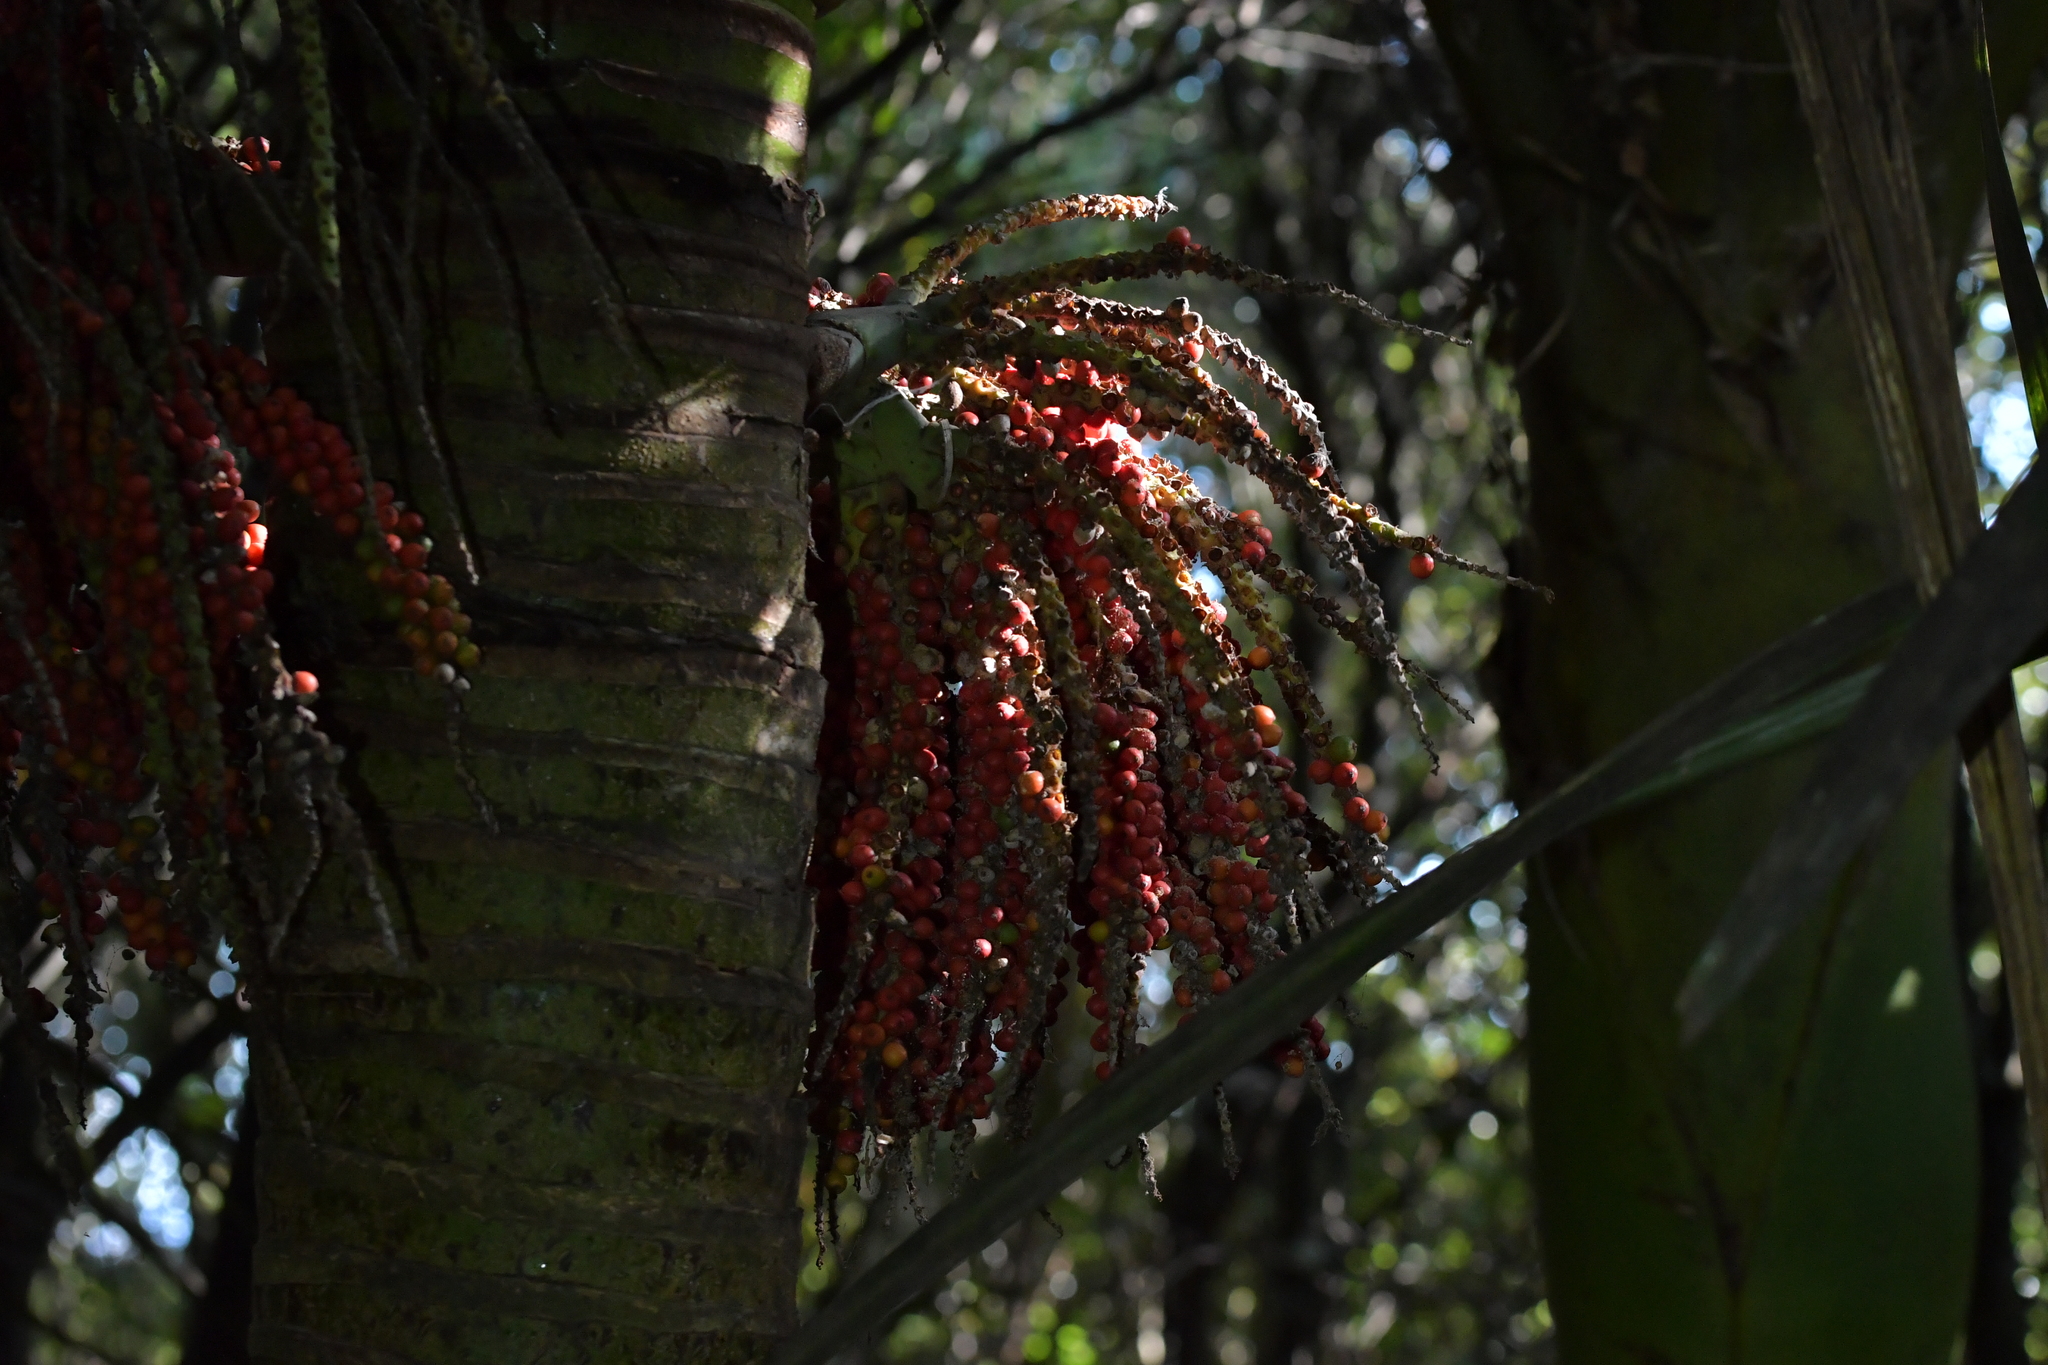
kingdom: Plantae
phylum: Tracheophyta
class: Liliopsida
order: Arecales
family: Arecaceae
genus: Rhopalostylis
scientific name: Rhopalostylis sapida
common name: Feather-duster palm
